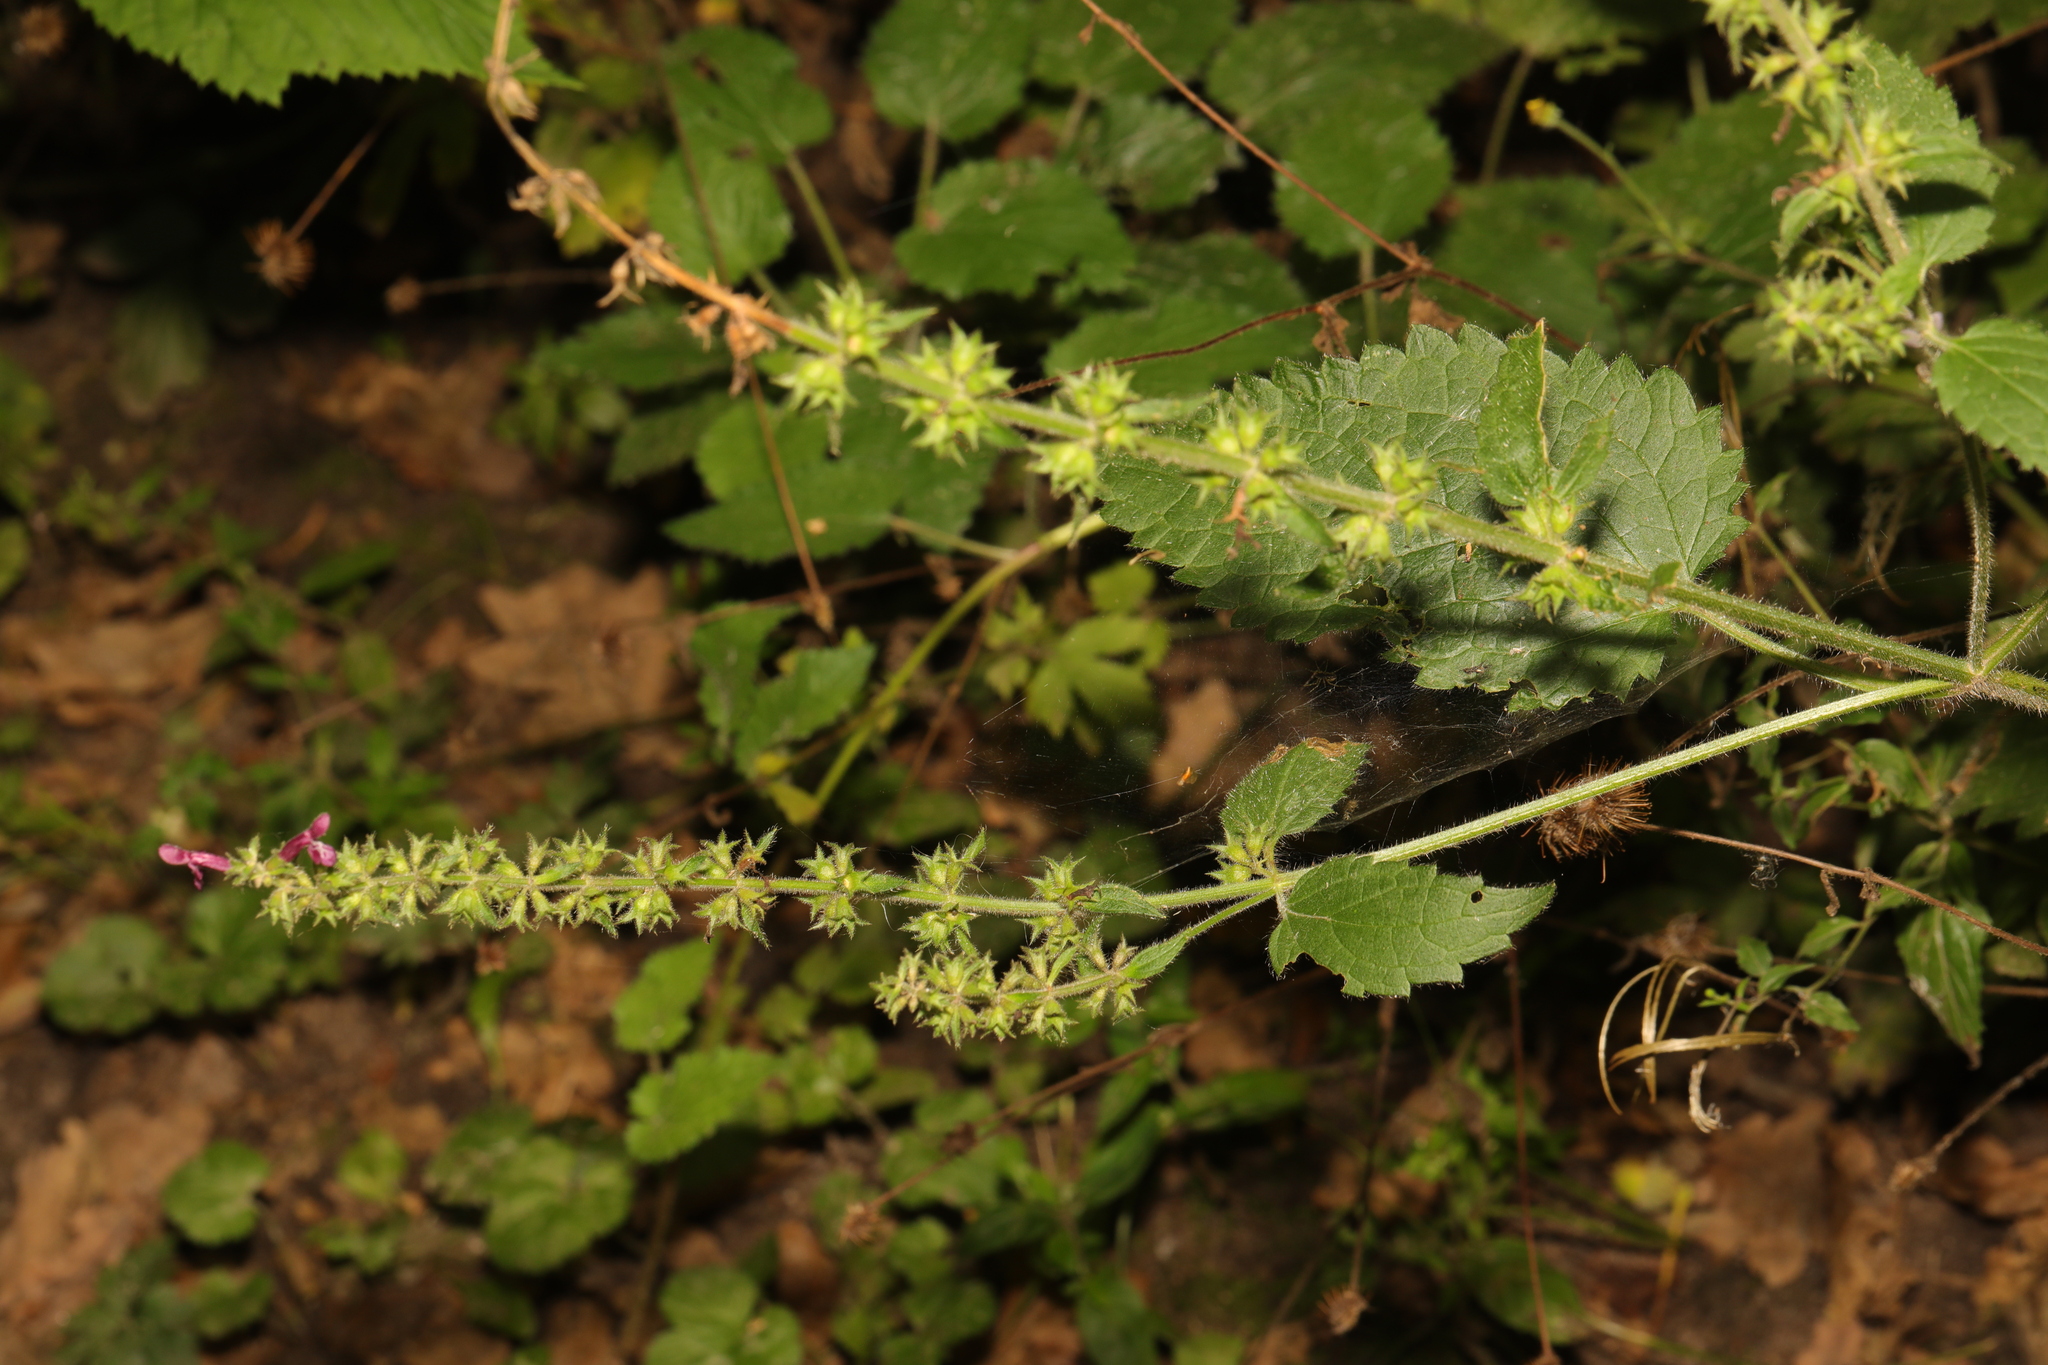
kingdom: Plantae
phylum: Tracheophyta
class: Magnoliopsida
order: Lamiales
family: Lamiaceae
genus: Stachys
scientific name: Stachys sylvatica
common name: Hedge woundwort
